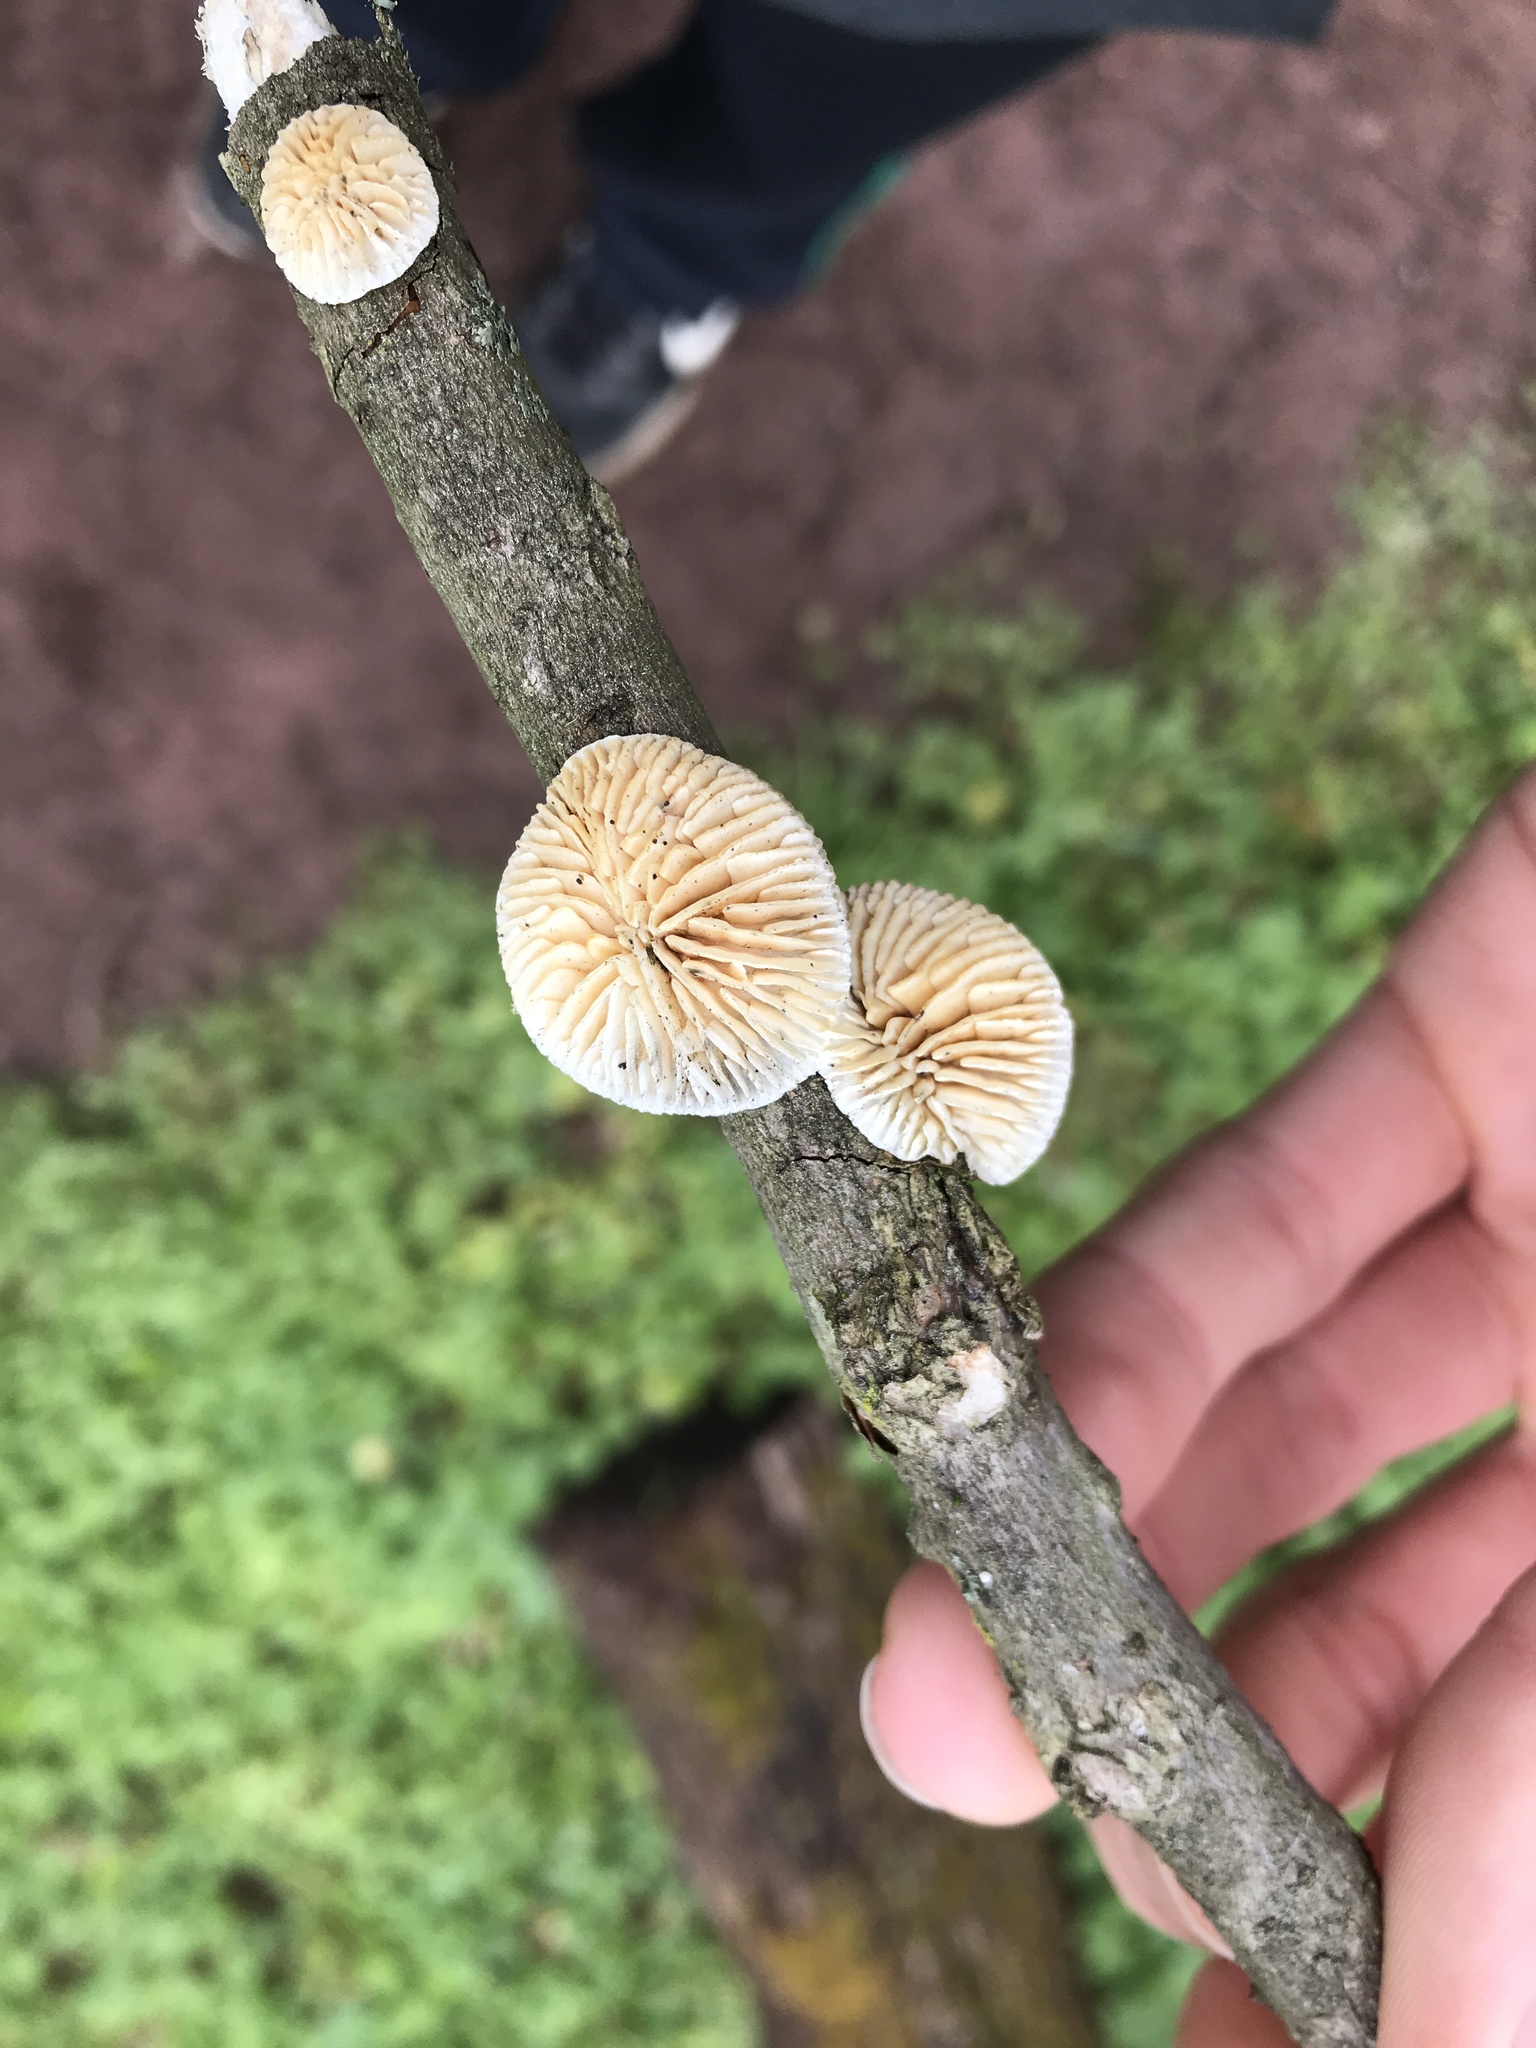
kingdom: Fungi
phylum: Basidiomycota
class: Agaricomycetes
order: Polyporales
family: Polyporaceae
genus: Lenzites
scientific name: Lenzites betulinus
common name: Birch mazegill
